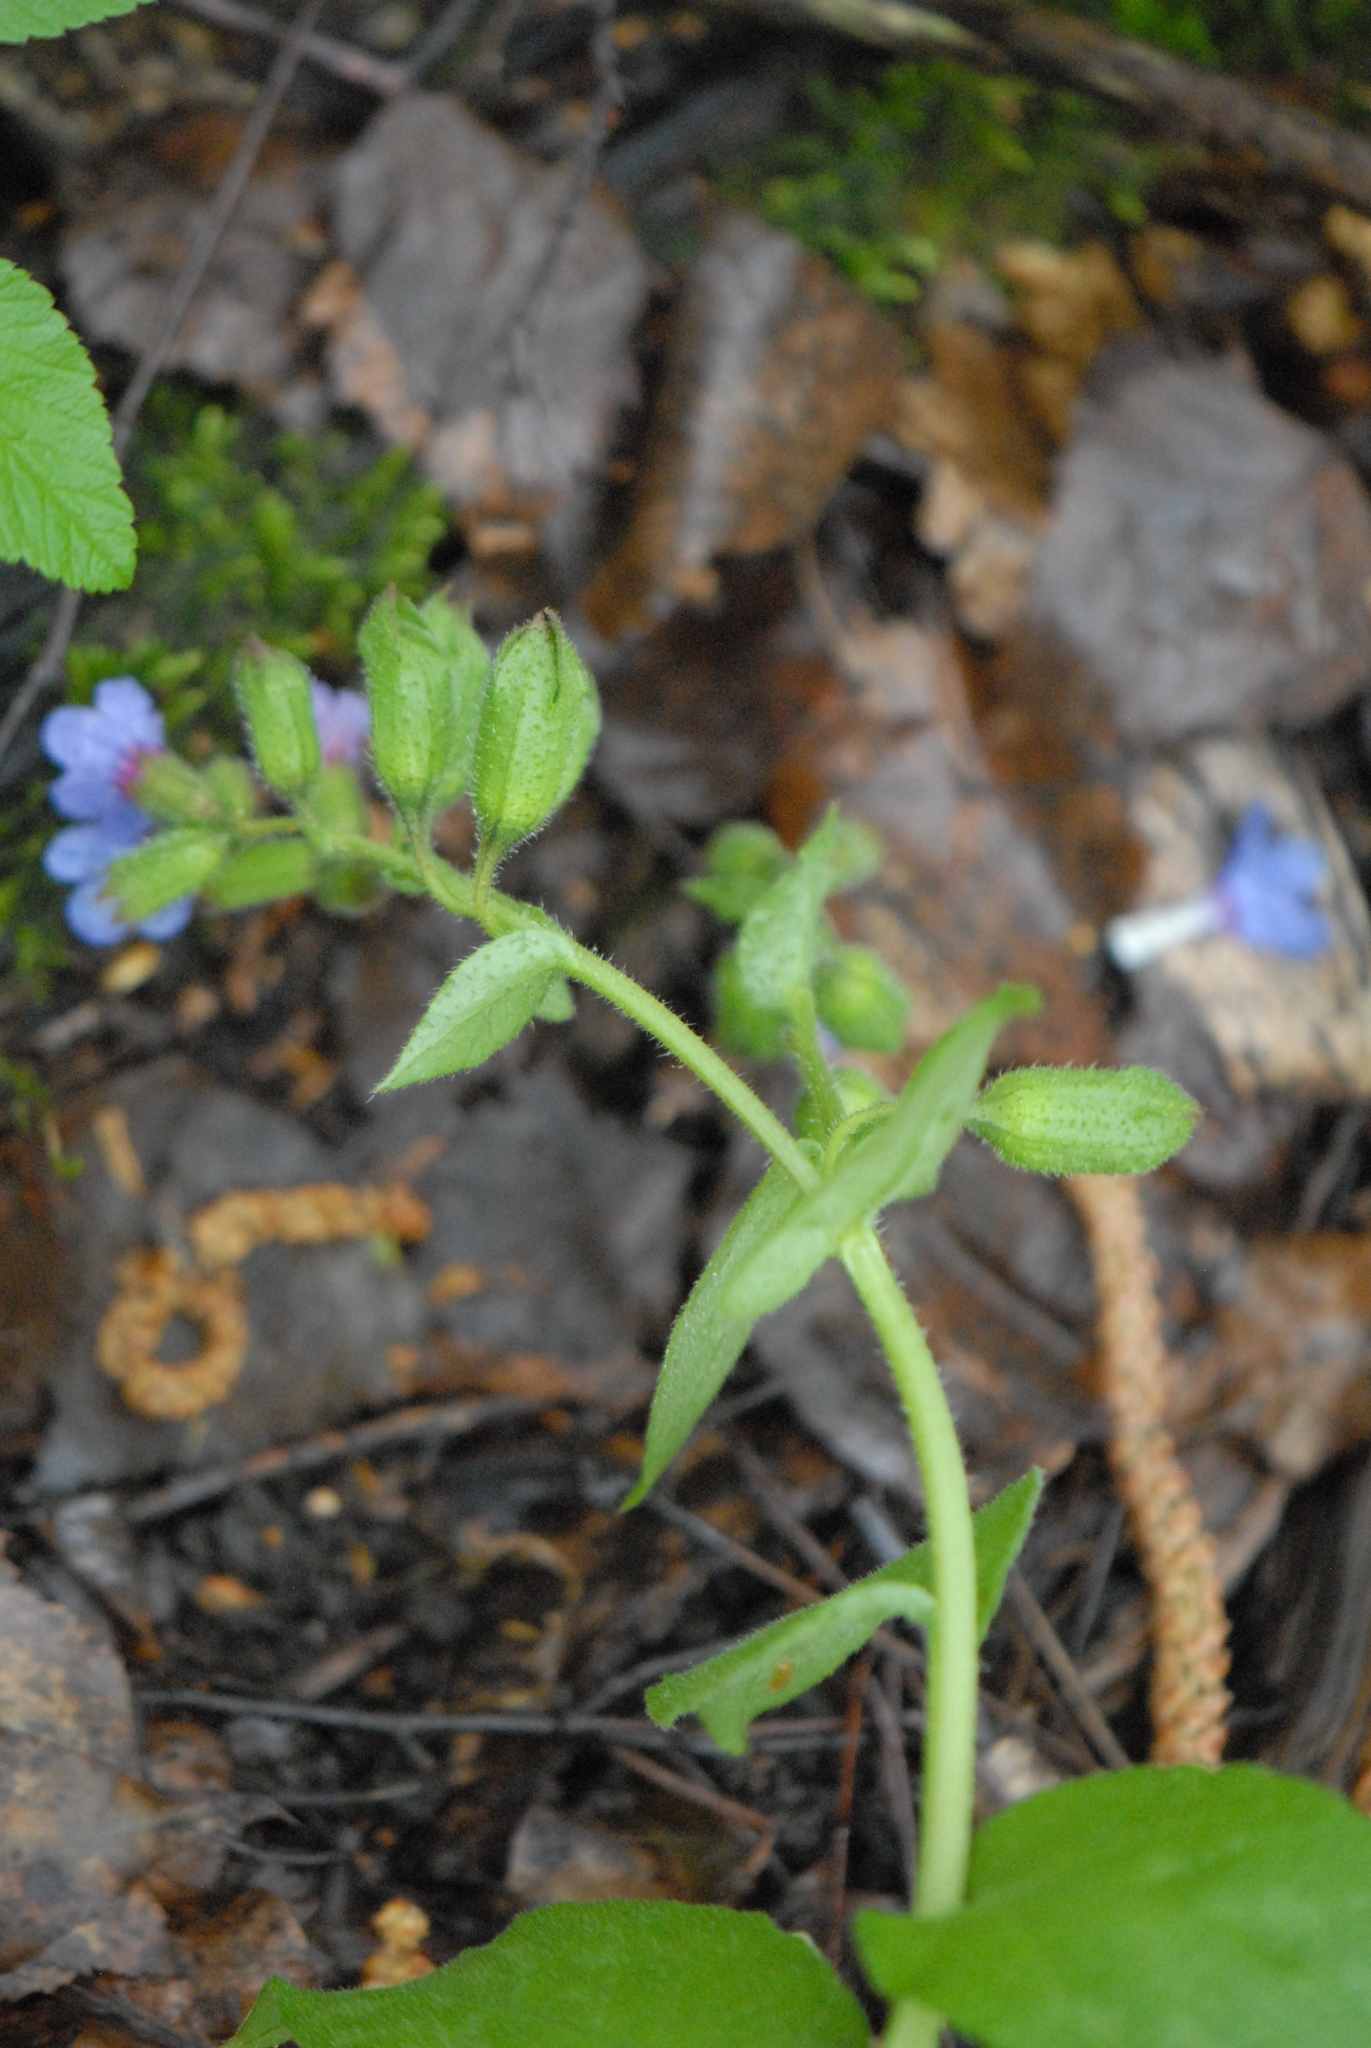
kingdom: Plantae
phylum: Tracheophyta
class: Magnoliopsida
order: Boraginales
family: Boraginaceae
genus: Pulmonaria
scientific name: Pulmonaria obscura
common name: Suffolk lungwort
